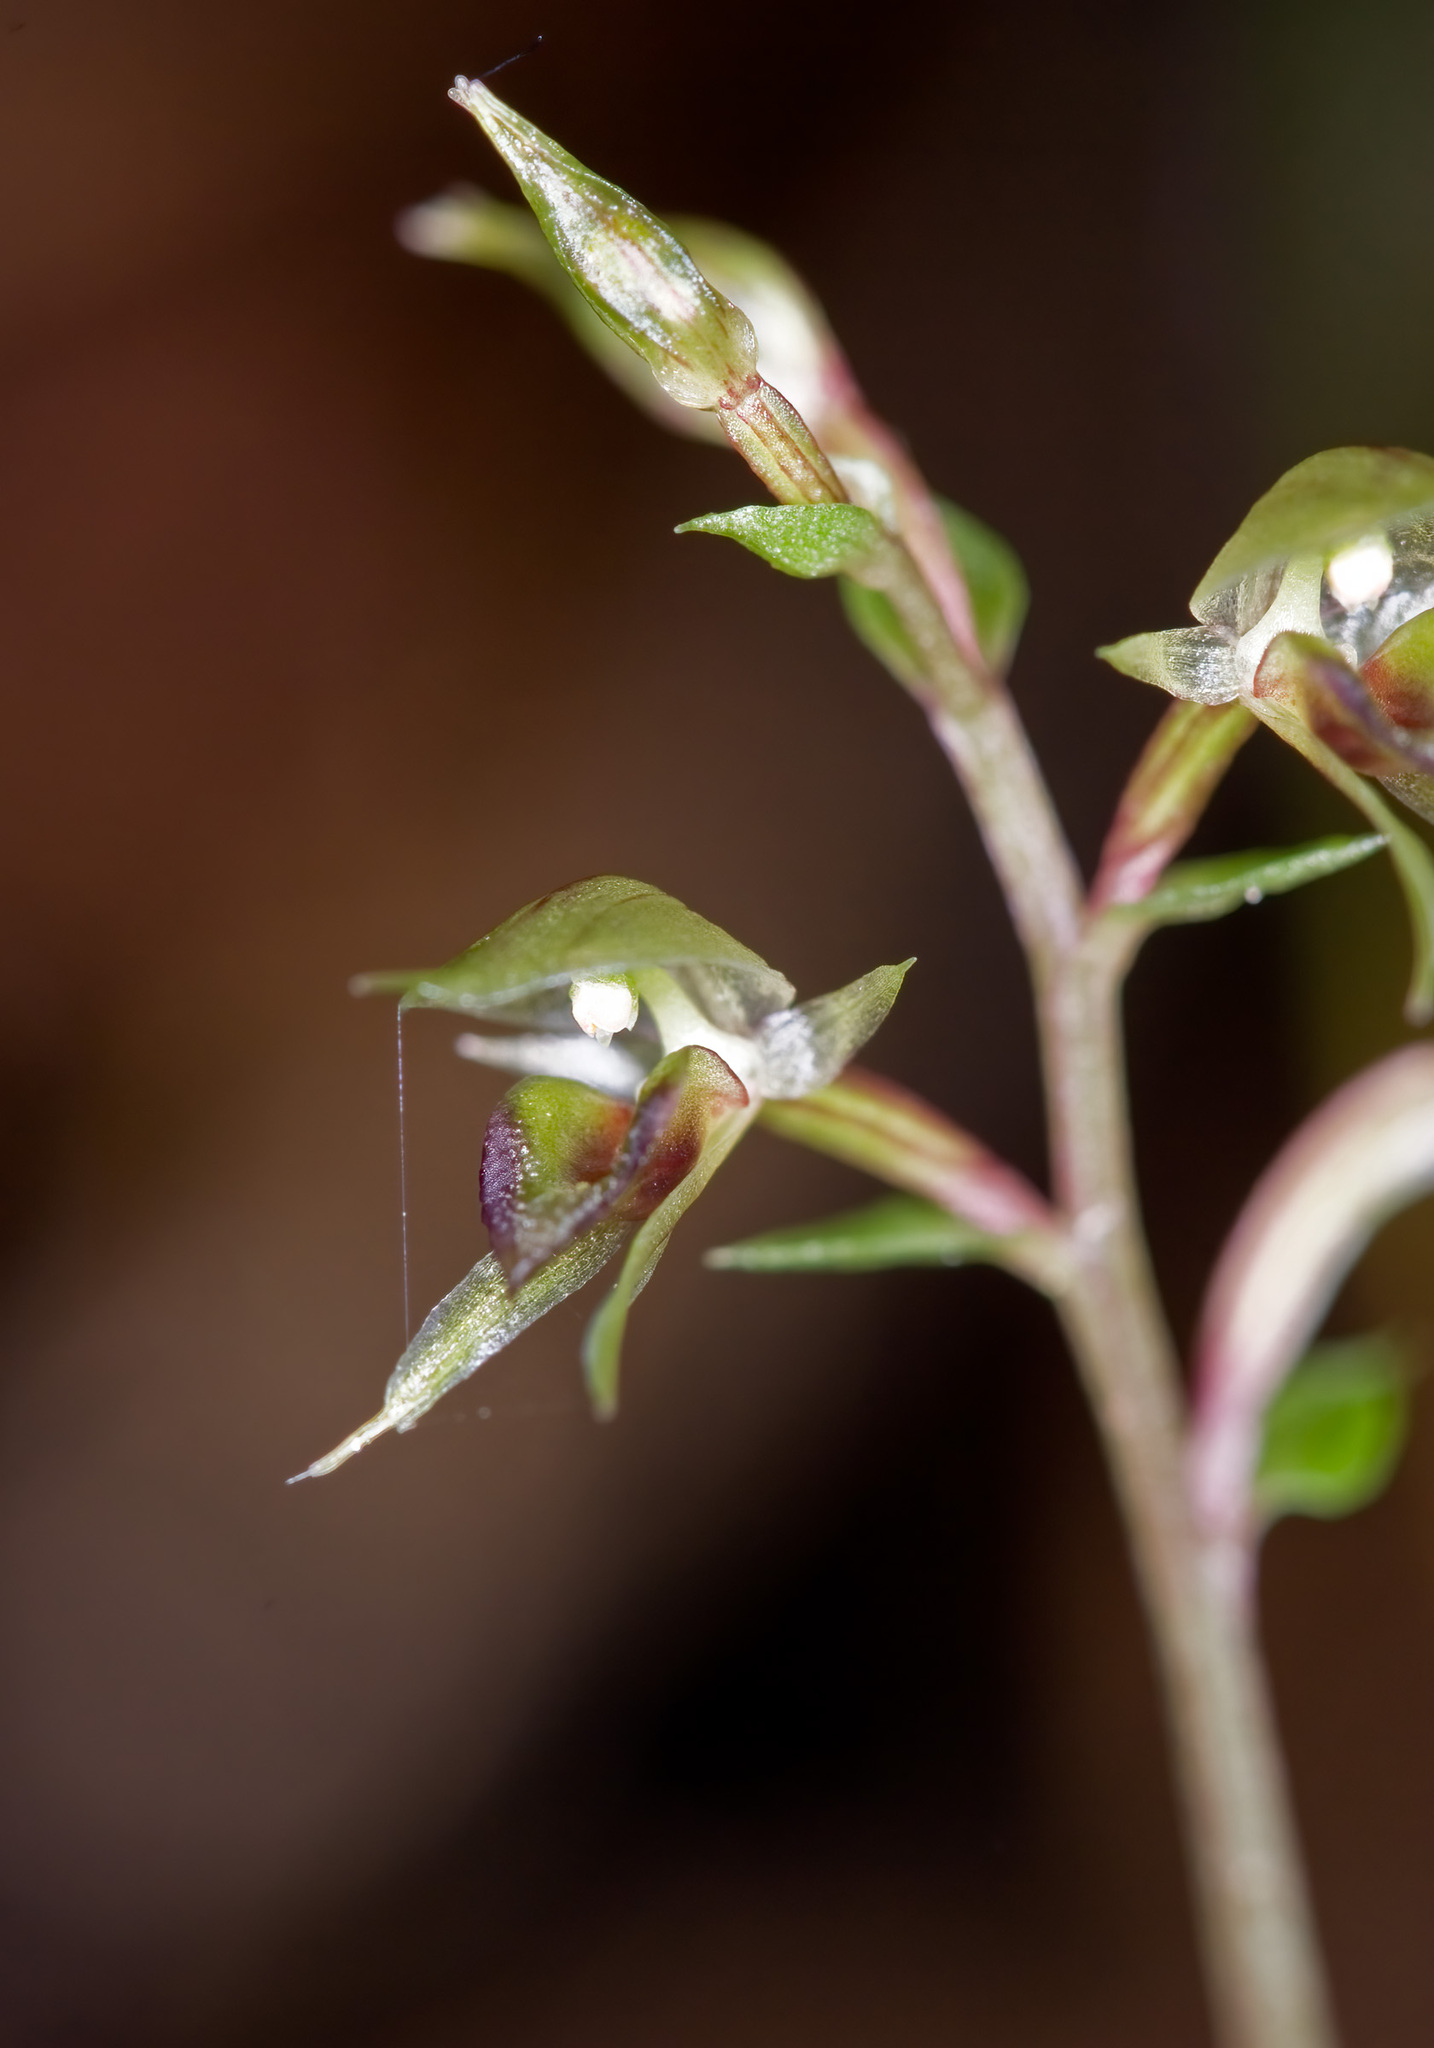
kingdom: Plantae
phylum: Tracheophyta
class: Liliopsida
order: Asparagales
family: Orchidaceae
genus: Acianthus
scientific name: Acianthus sinclairii
